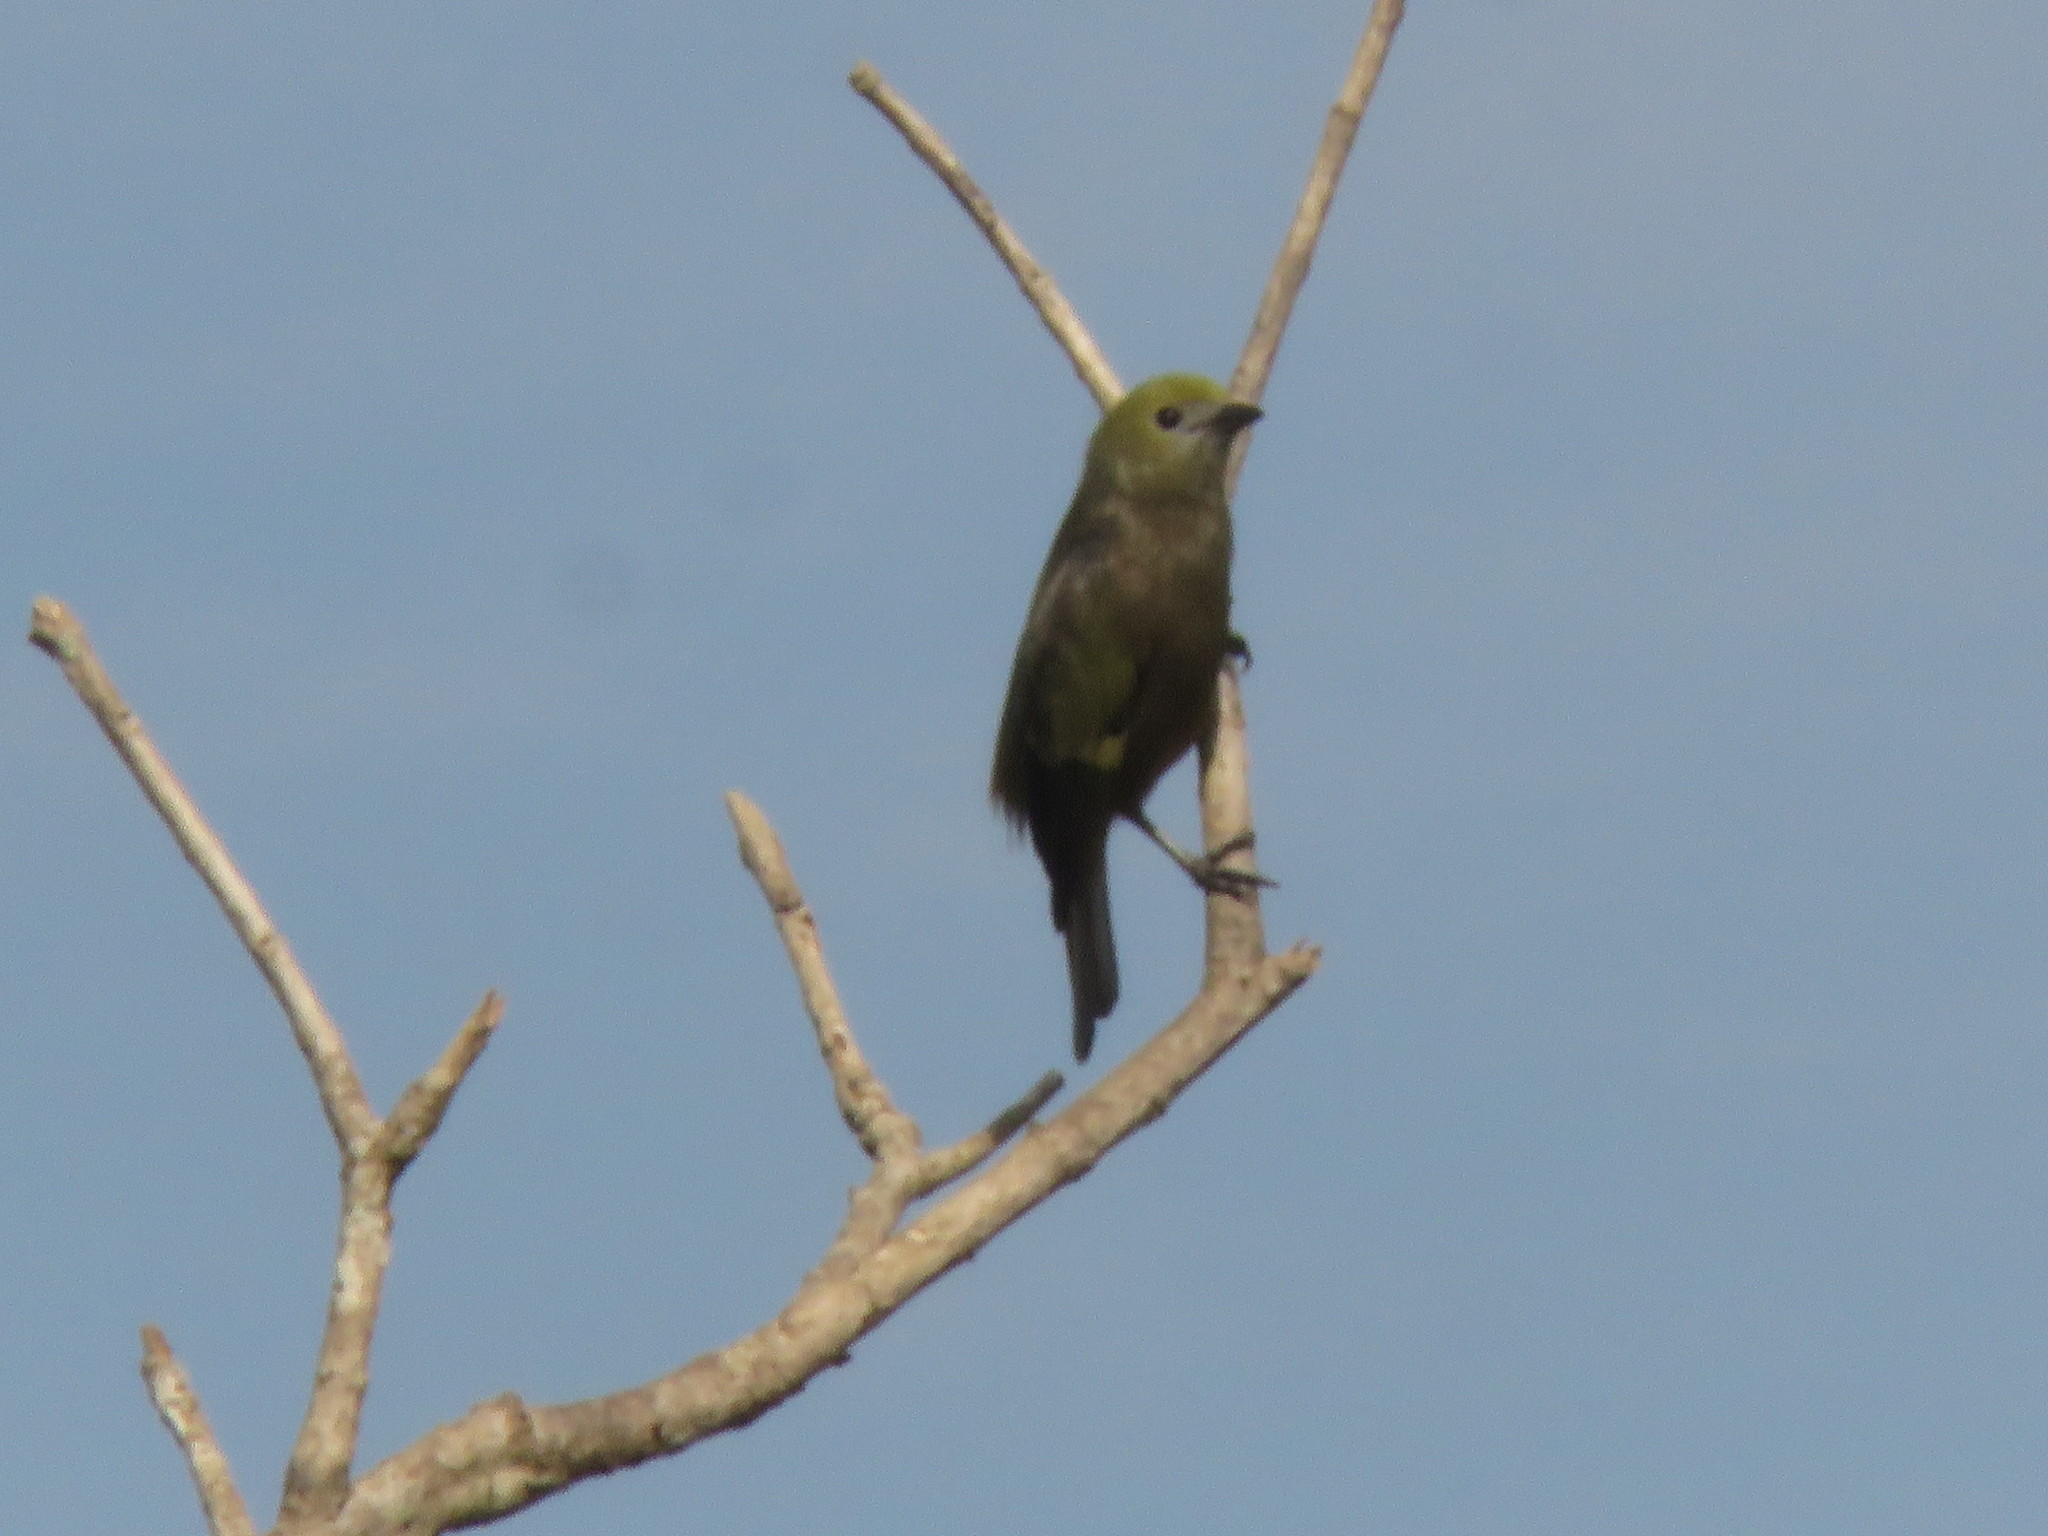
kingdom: Animalia
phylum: Chordata
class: Aves
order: Passeriformes
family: Thraupidae
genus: Thraupis
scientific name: Thraupis palmarum
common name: Palm tanager
